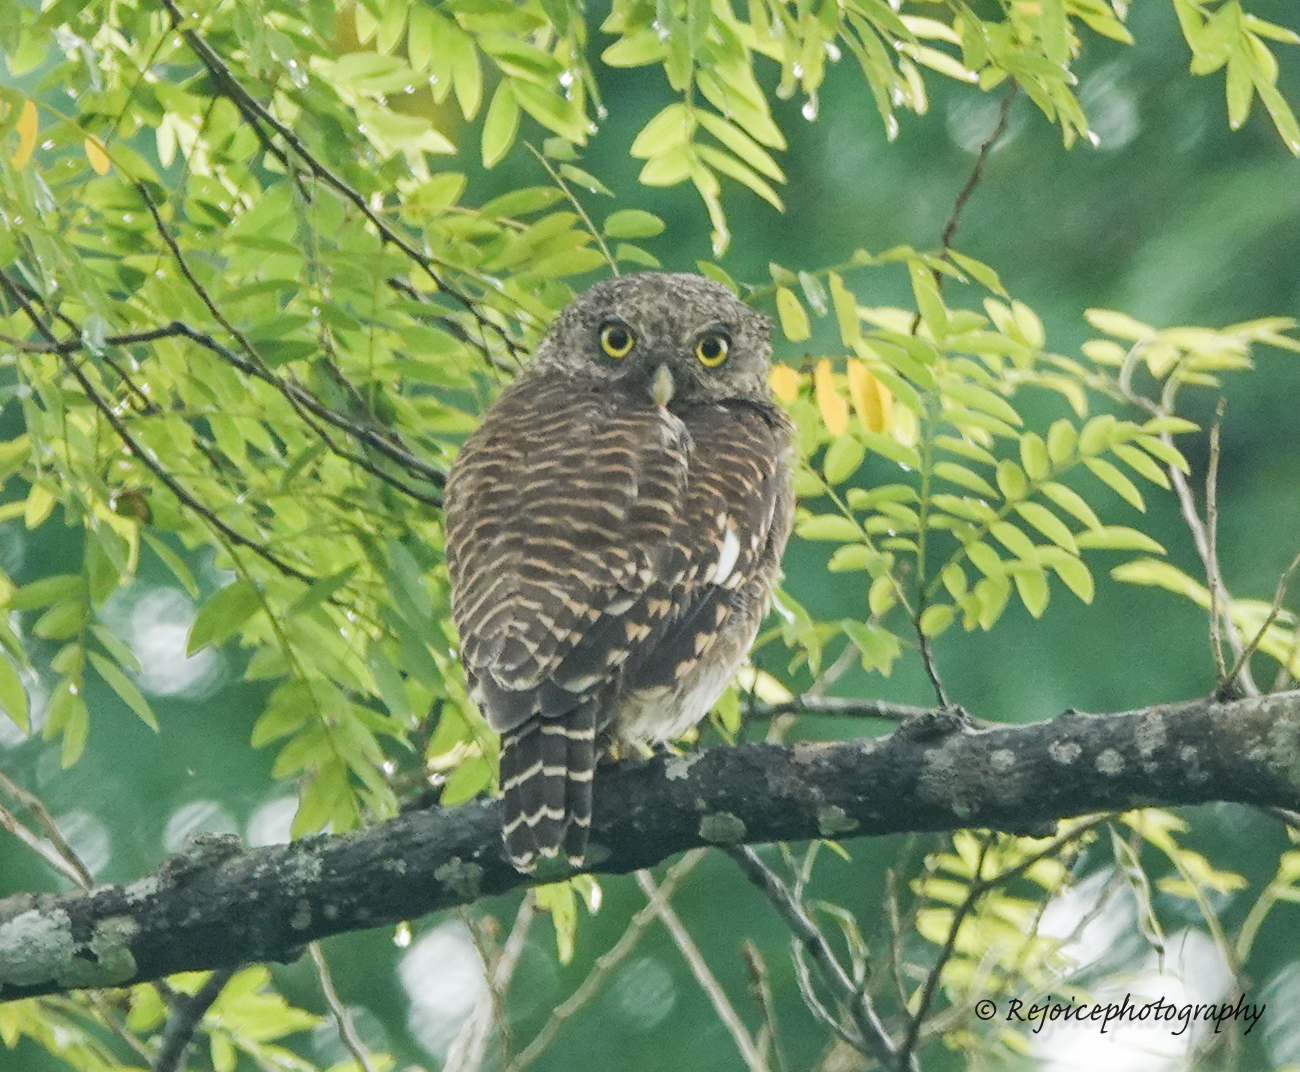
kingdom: Animalia
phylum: Chordata
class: Aves
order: Strigiformes
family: Strigidae
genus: Glaucidium
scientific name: Glaucidium cuculoides
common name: Asian barred owlet
